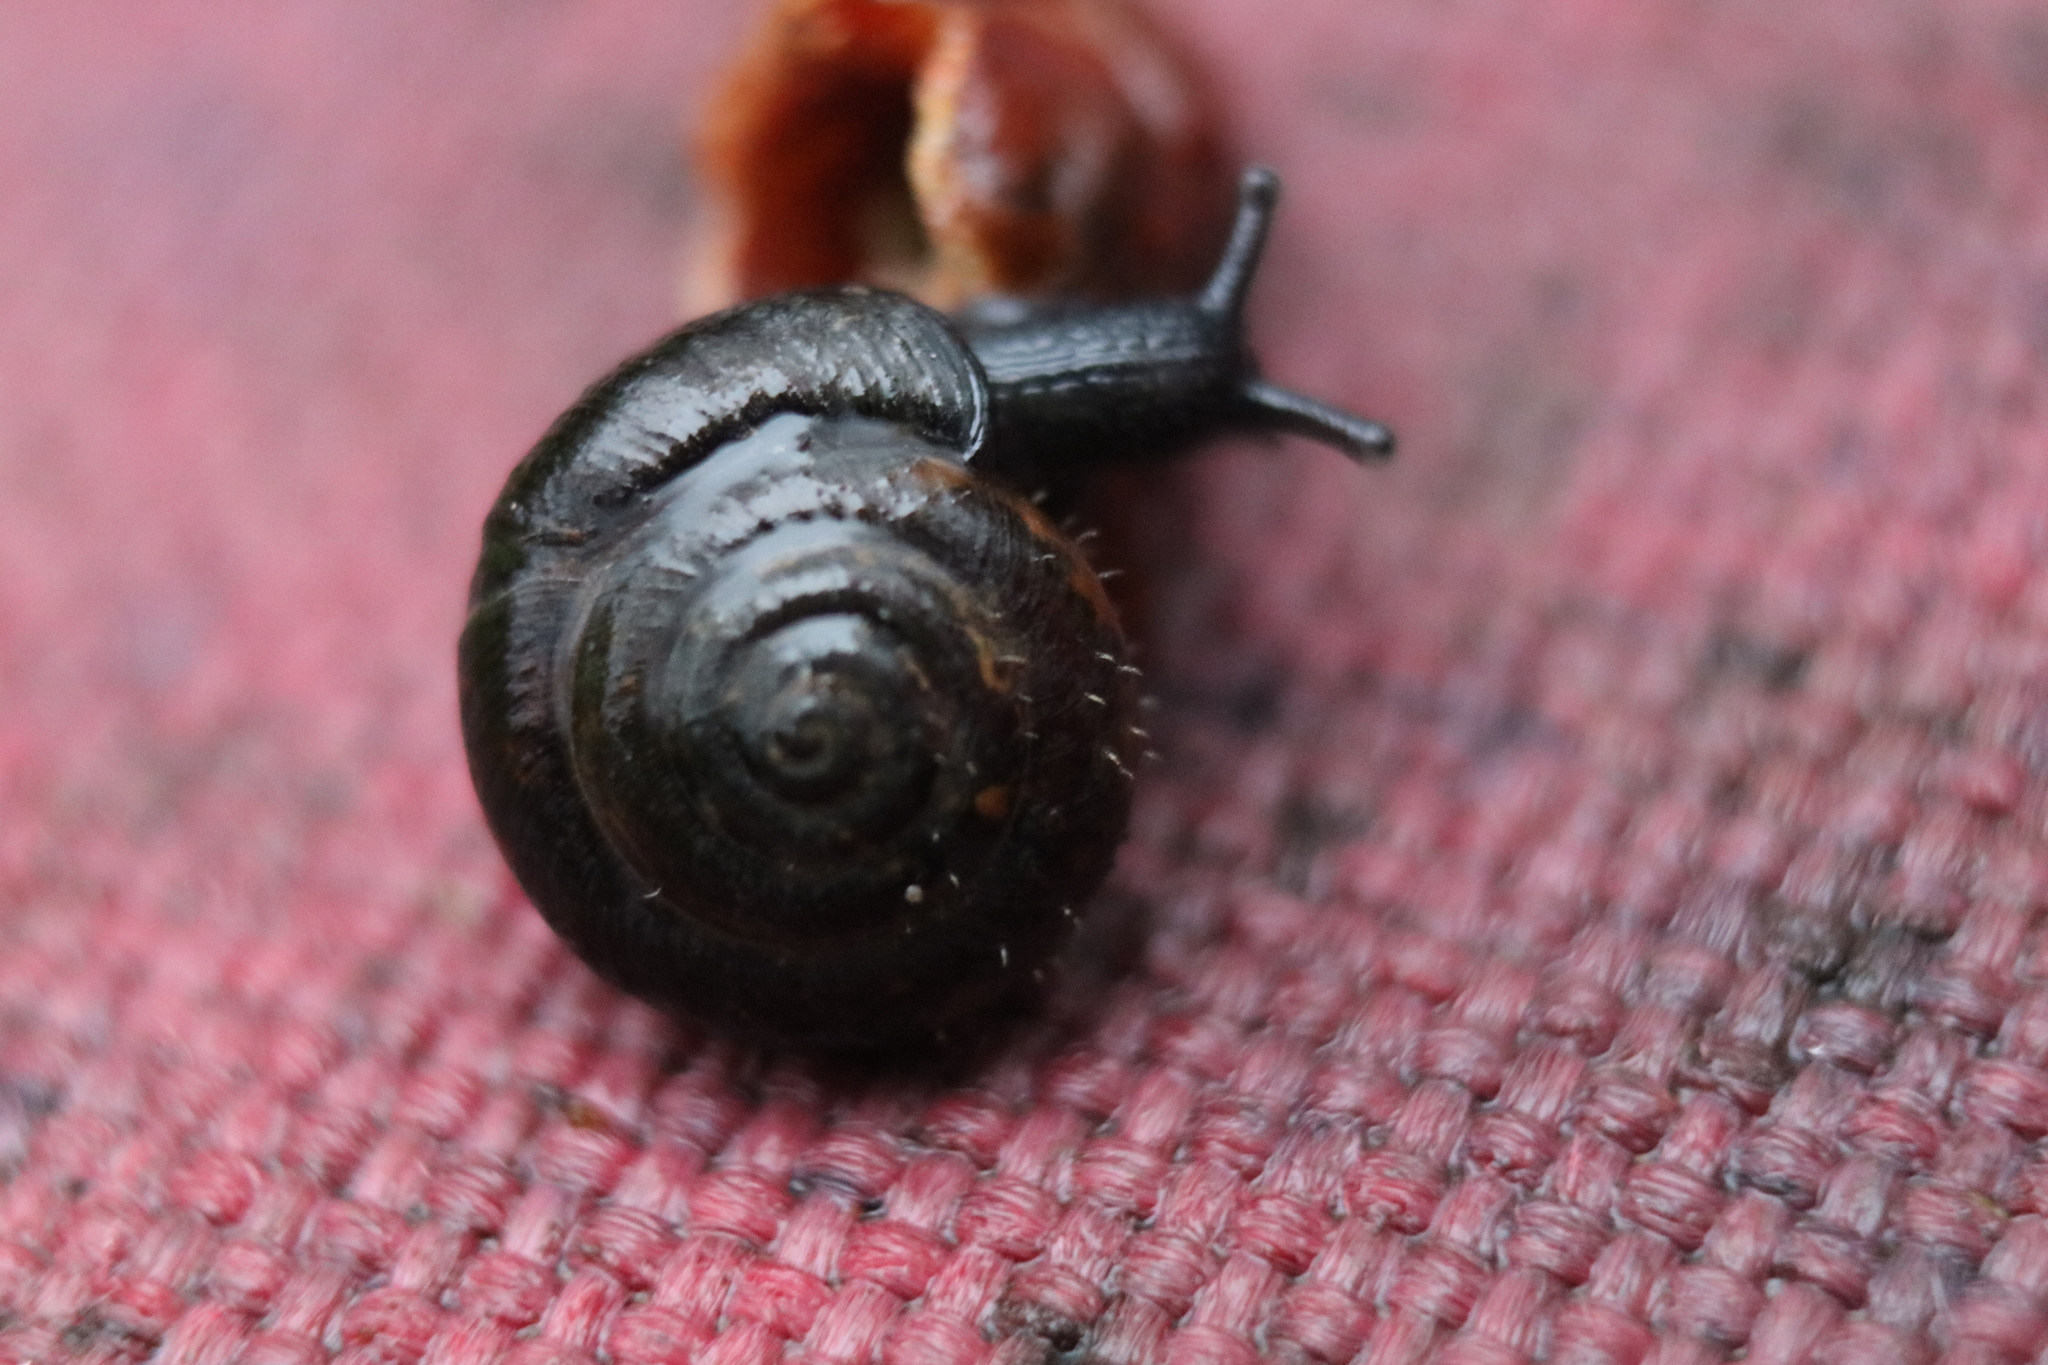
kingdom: Animalia
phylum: Mollusca
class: Gastropoda
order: Stylommatophora
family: Hygromiidae
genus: Trochulus
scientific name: Trochulus hispidus
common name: Hairy snail
